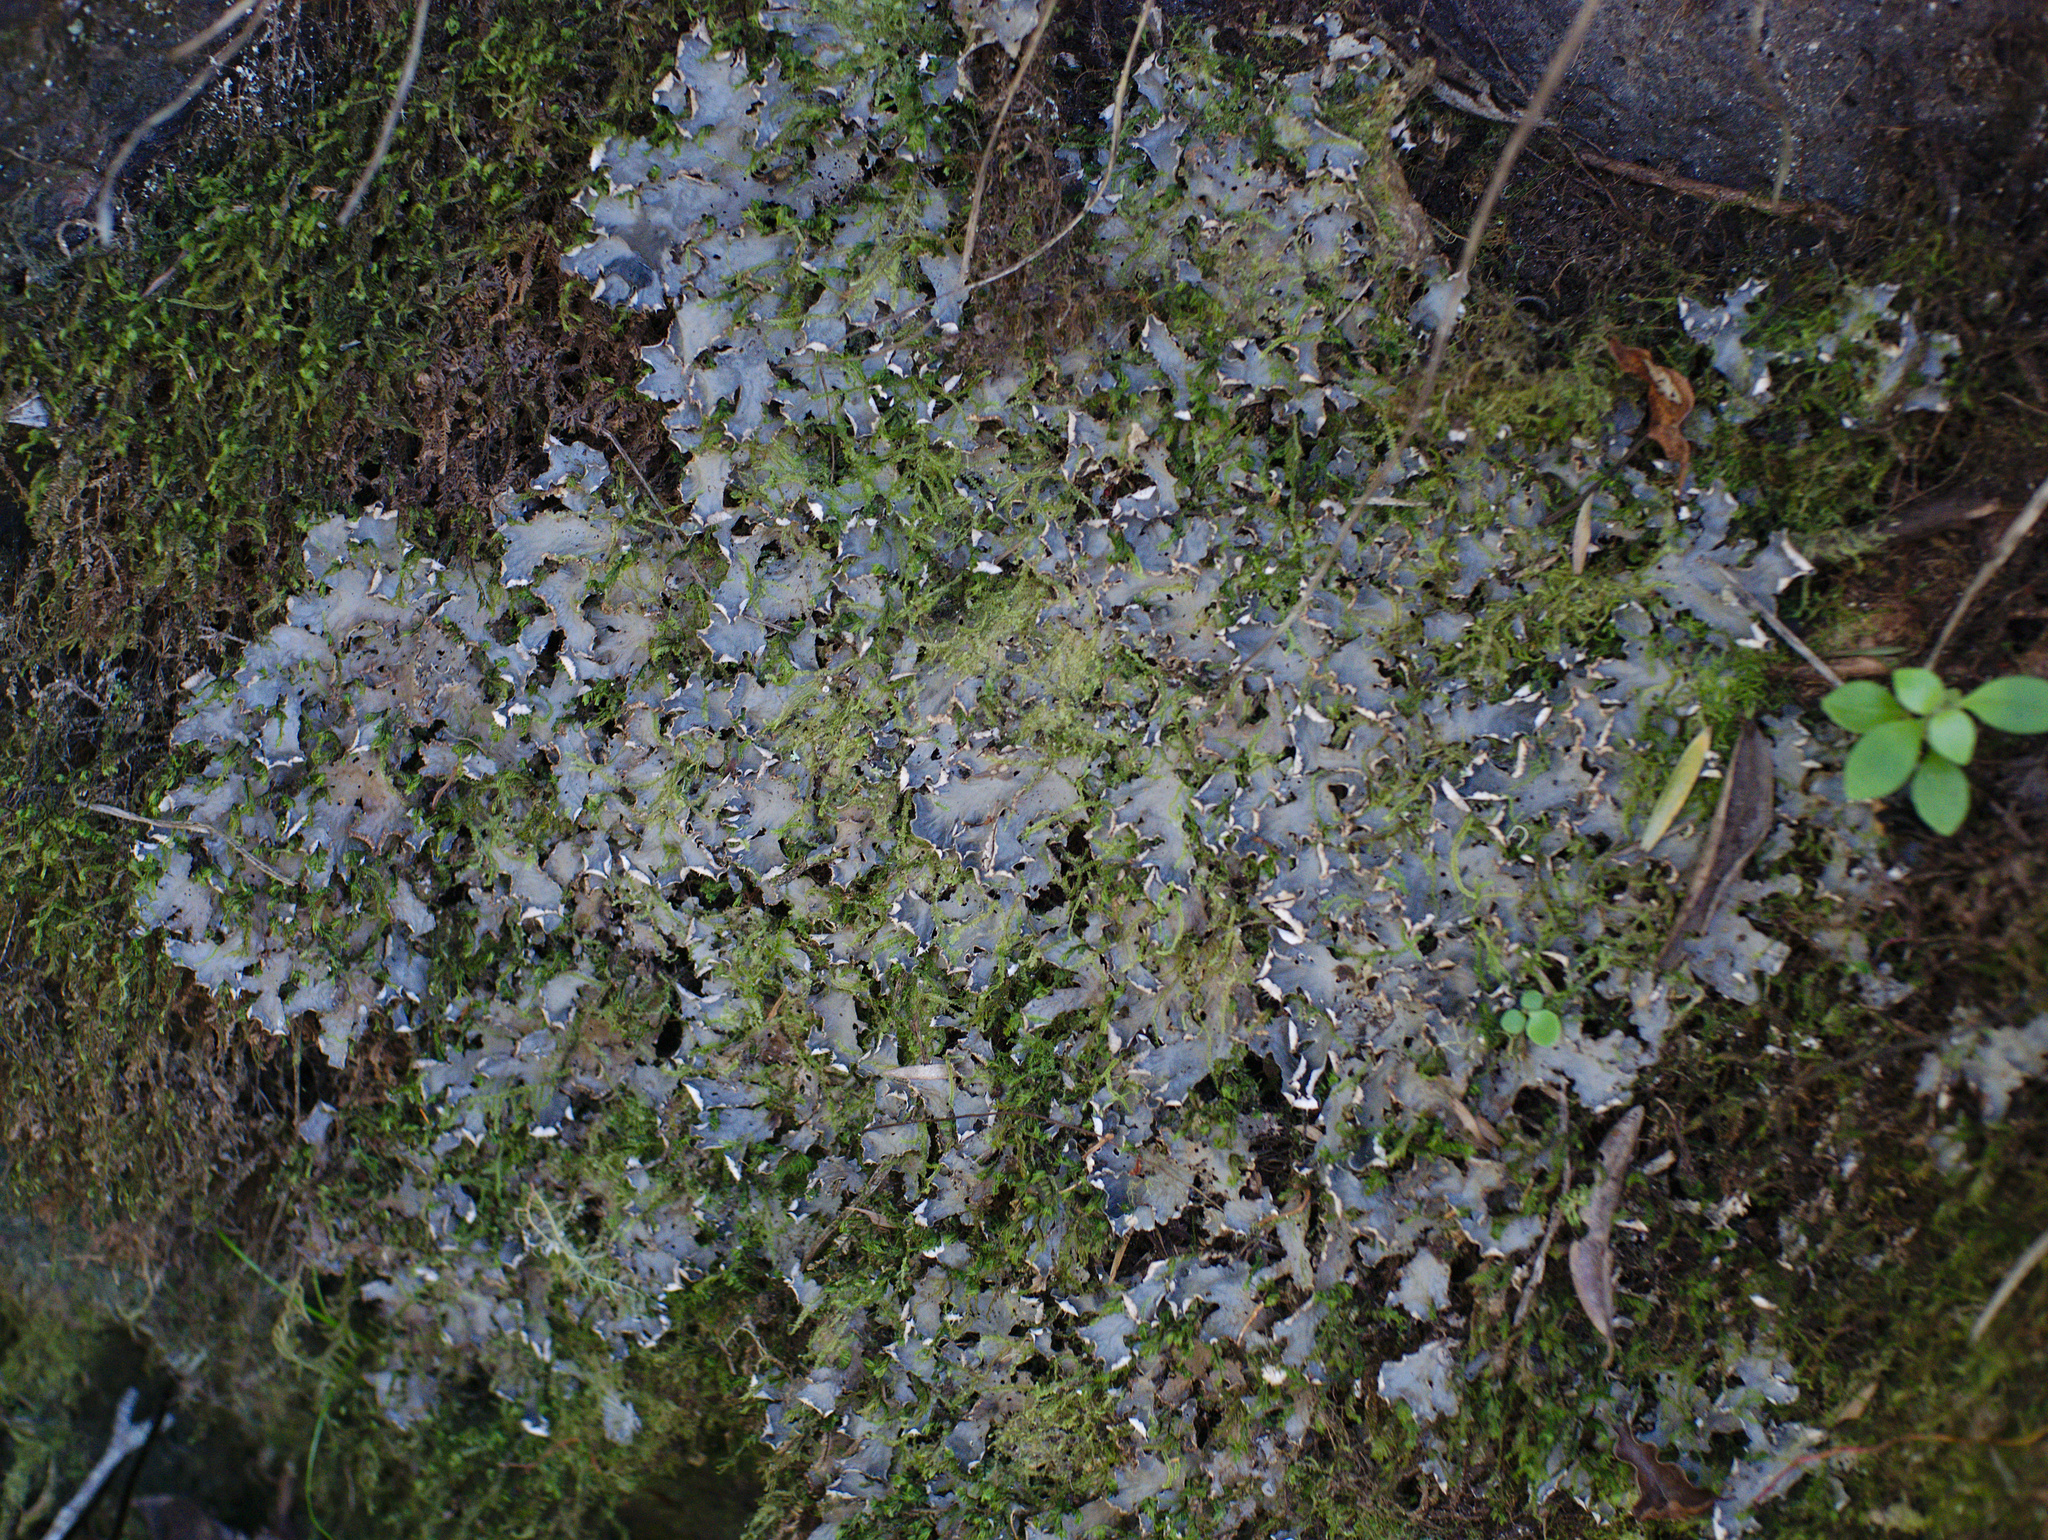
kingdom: Fungi
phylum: Ascomycota
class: Lecanoromycetes
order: Peltigerales
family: Peltigeraceae
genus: Peltigera
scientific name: Peltigera nana
